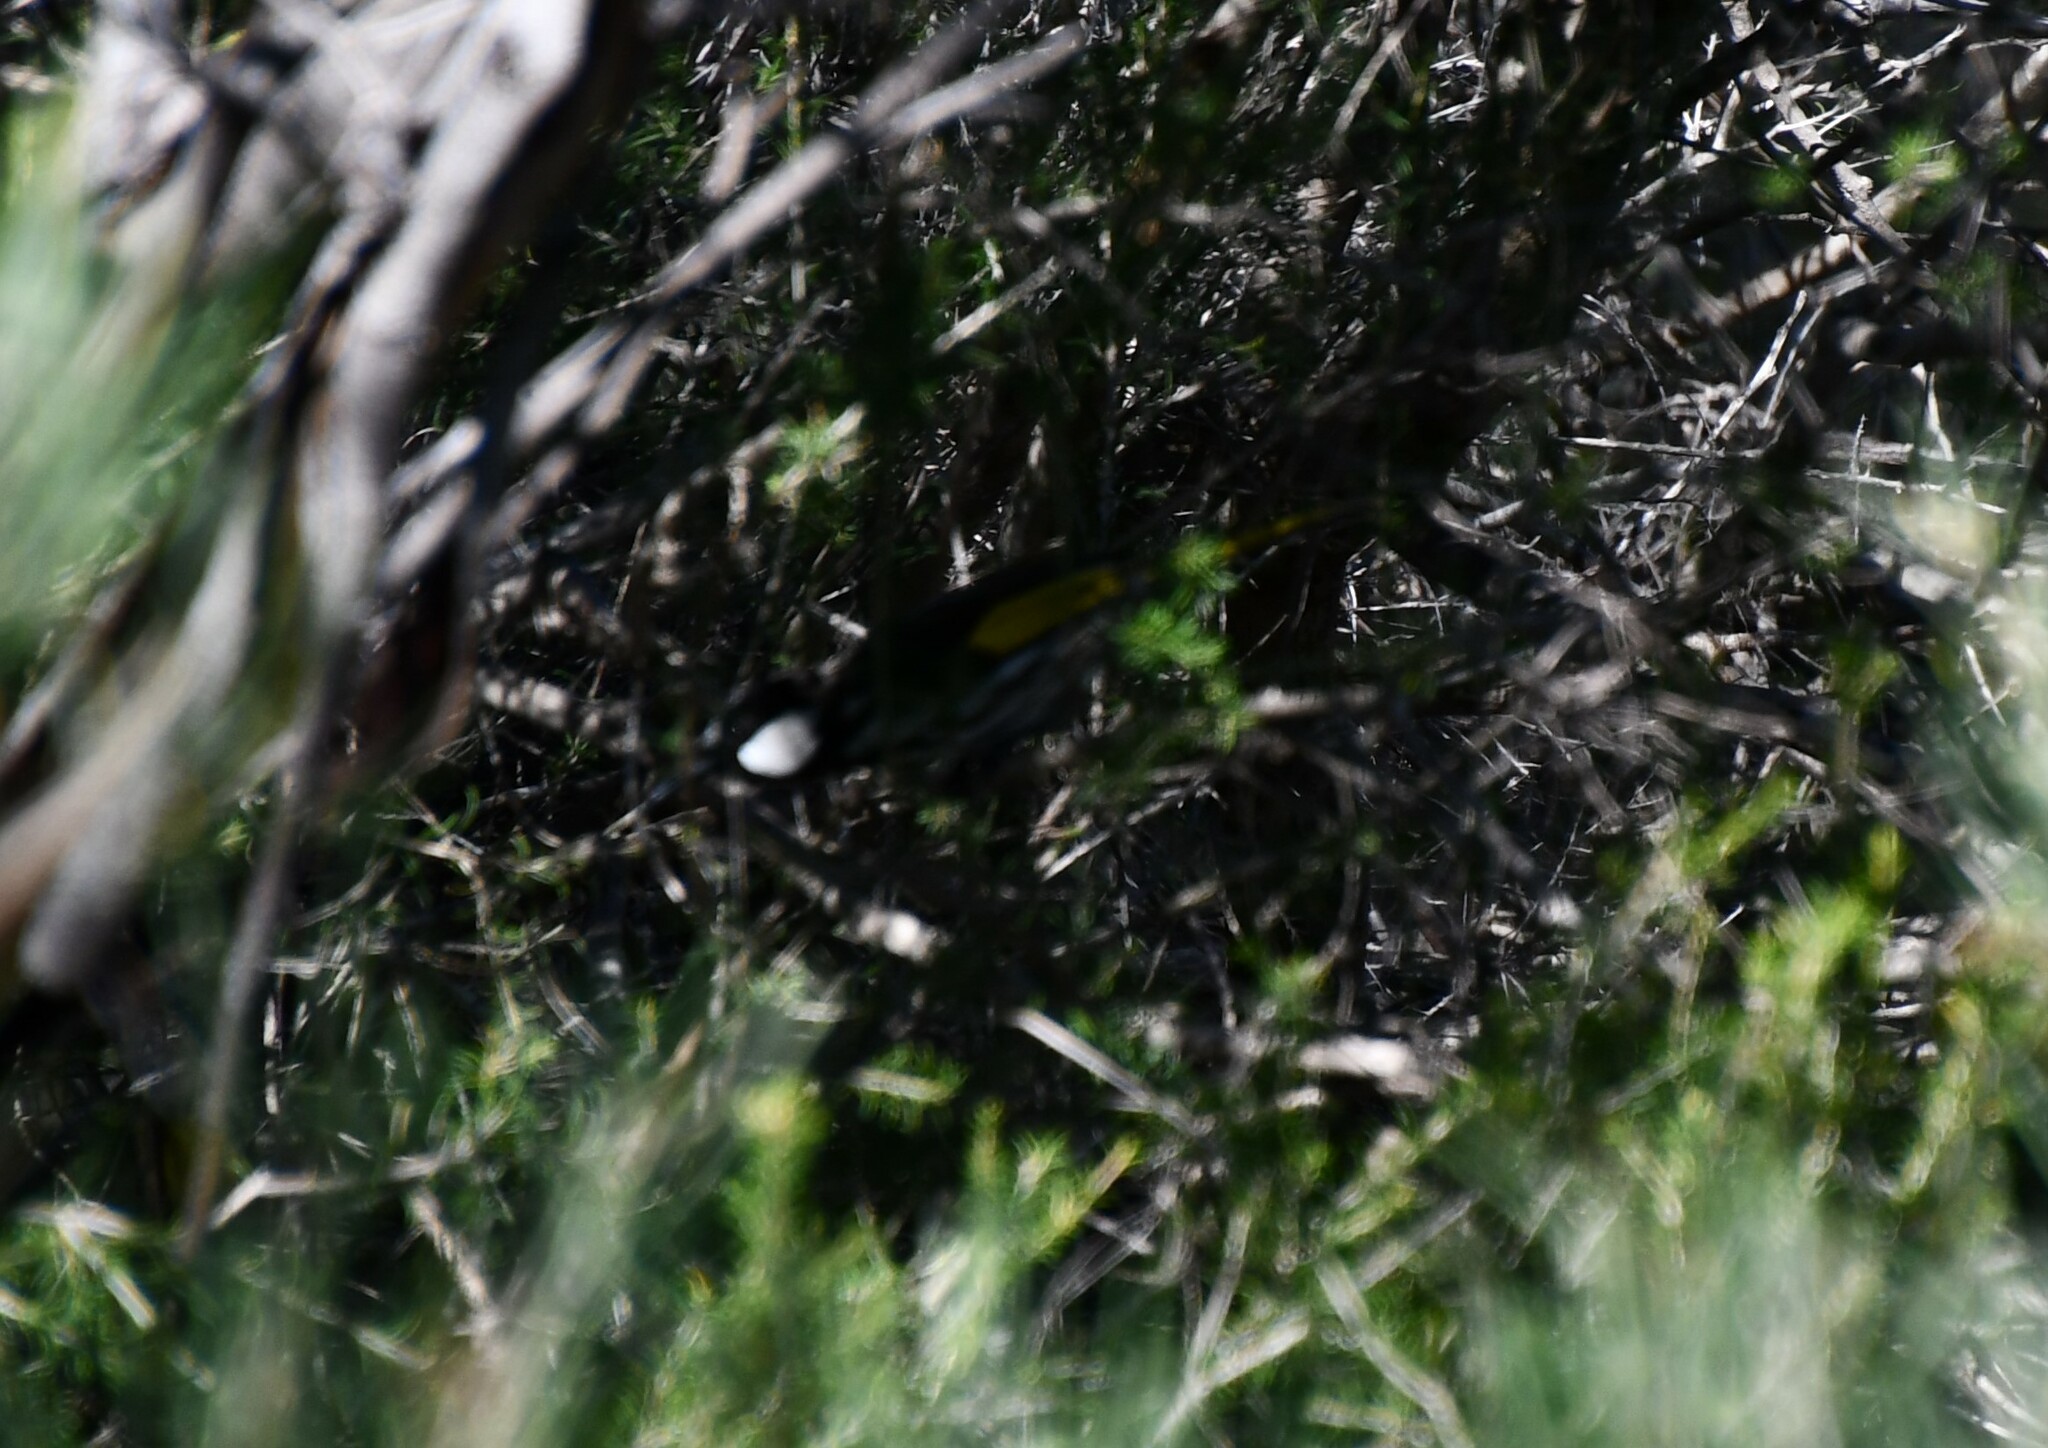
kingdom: Animalia
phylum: Chordata
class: Aves
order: Passeriformes
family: Meliphagidae
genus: Phylidonyris
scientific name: Phylidonyris niger
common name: White-cheeked honeyeater
